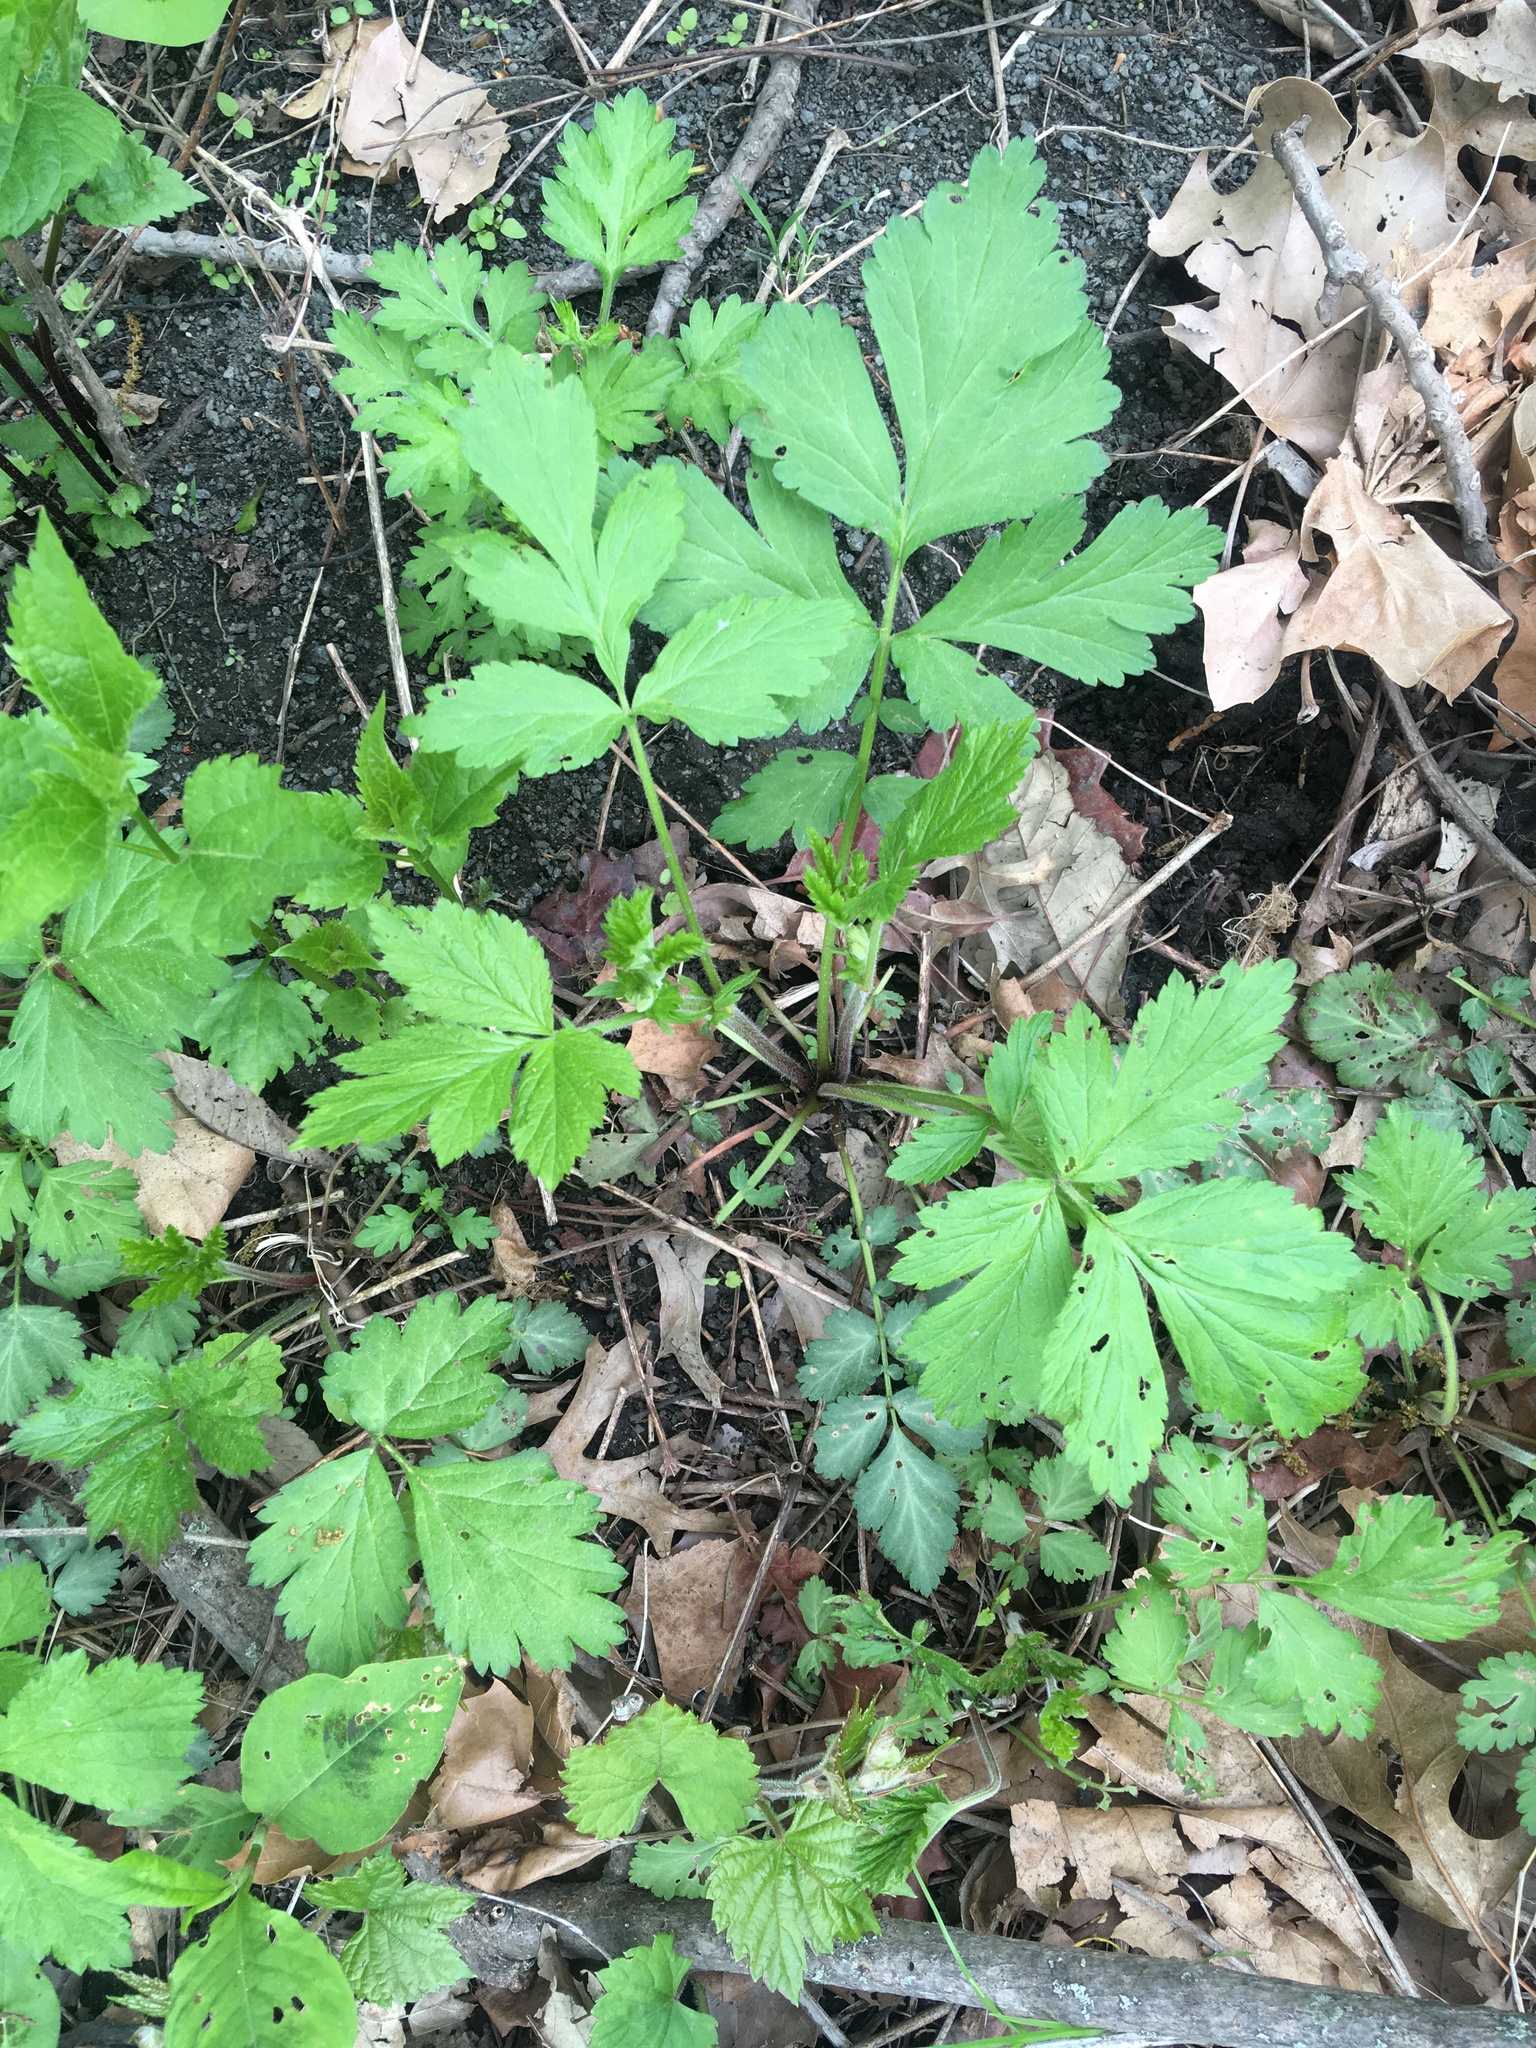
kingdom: Plantae
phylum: Tracheophyta
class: Magnoliopsida
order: Rosales
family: Rosaceae
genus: Geum
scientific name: Geum canadense
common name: White avens
